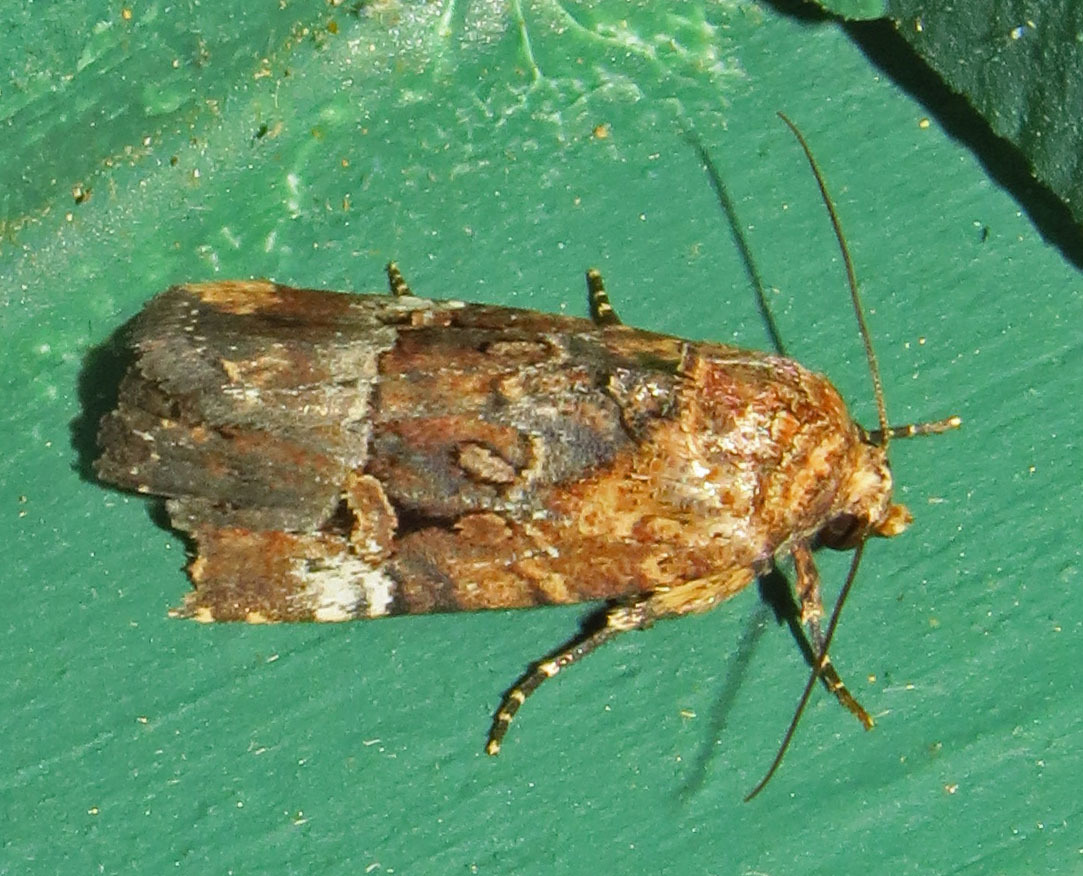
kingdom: Animalia
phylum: Arthropoda
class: Insecta
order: Lepidoptera
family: Noctuidae
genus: Elaphria
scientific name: Elaphria chalcedonia
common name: Chalcedony midget
